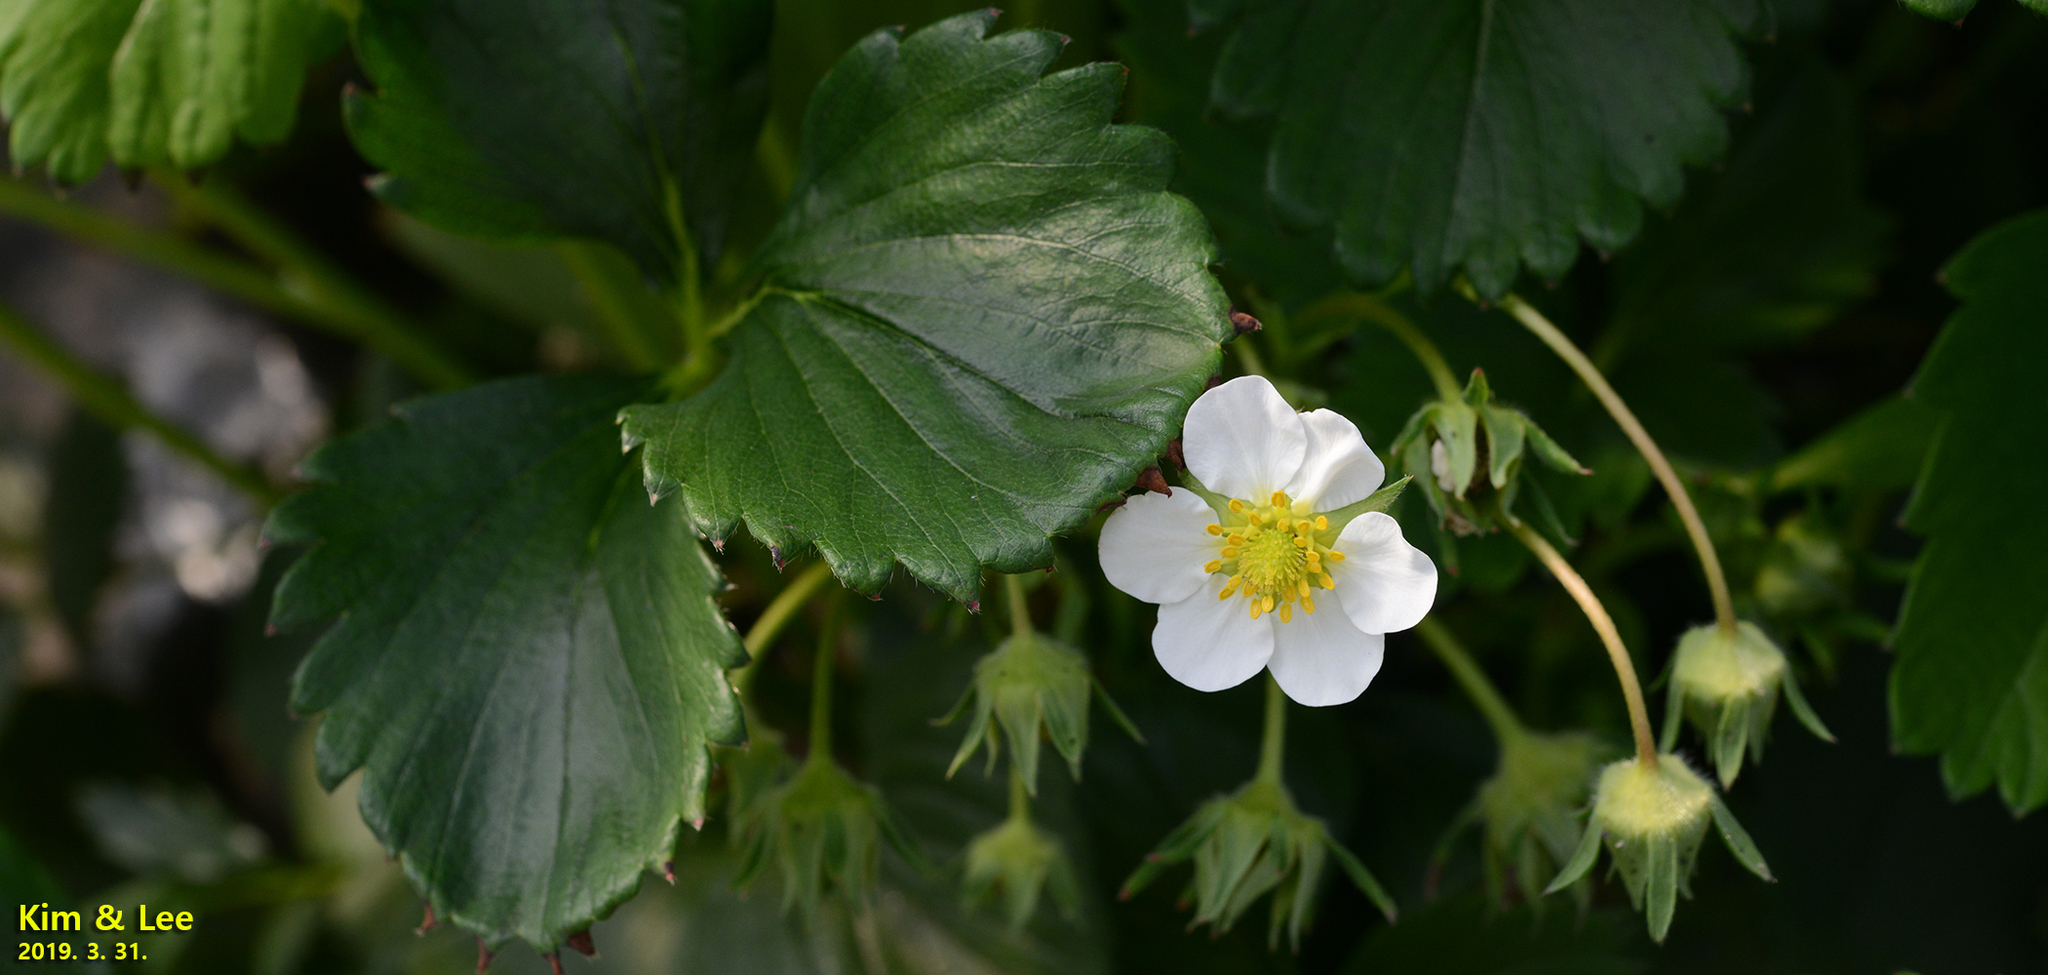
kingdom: Plantae
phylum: Tracheophyta
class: Magnoliopsida
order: Rosales
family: Rosaceae
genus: Fragaria
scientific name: Fragaria ananassa
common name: Garden strawberry
